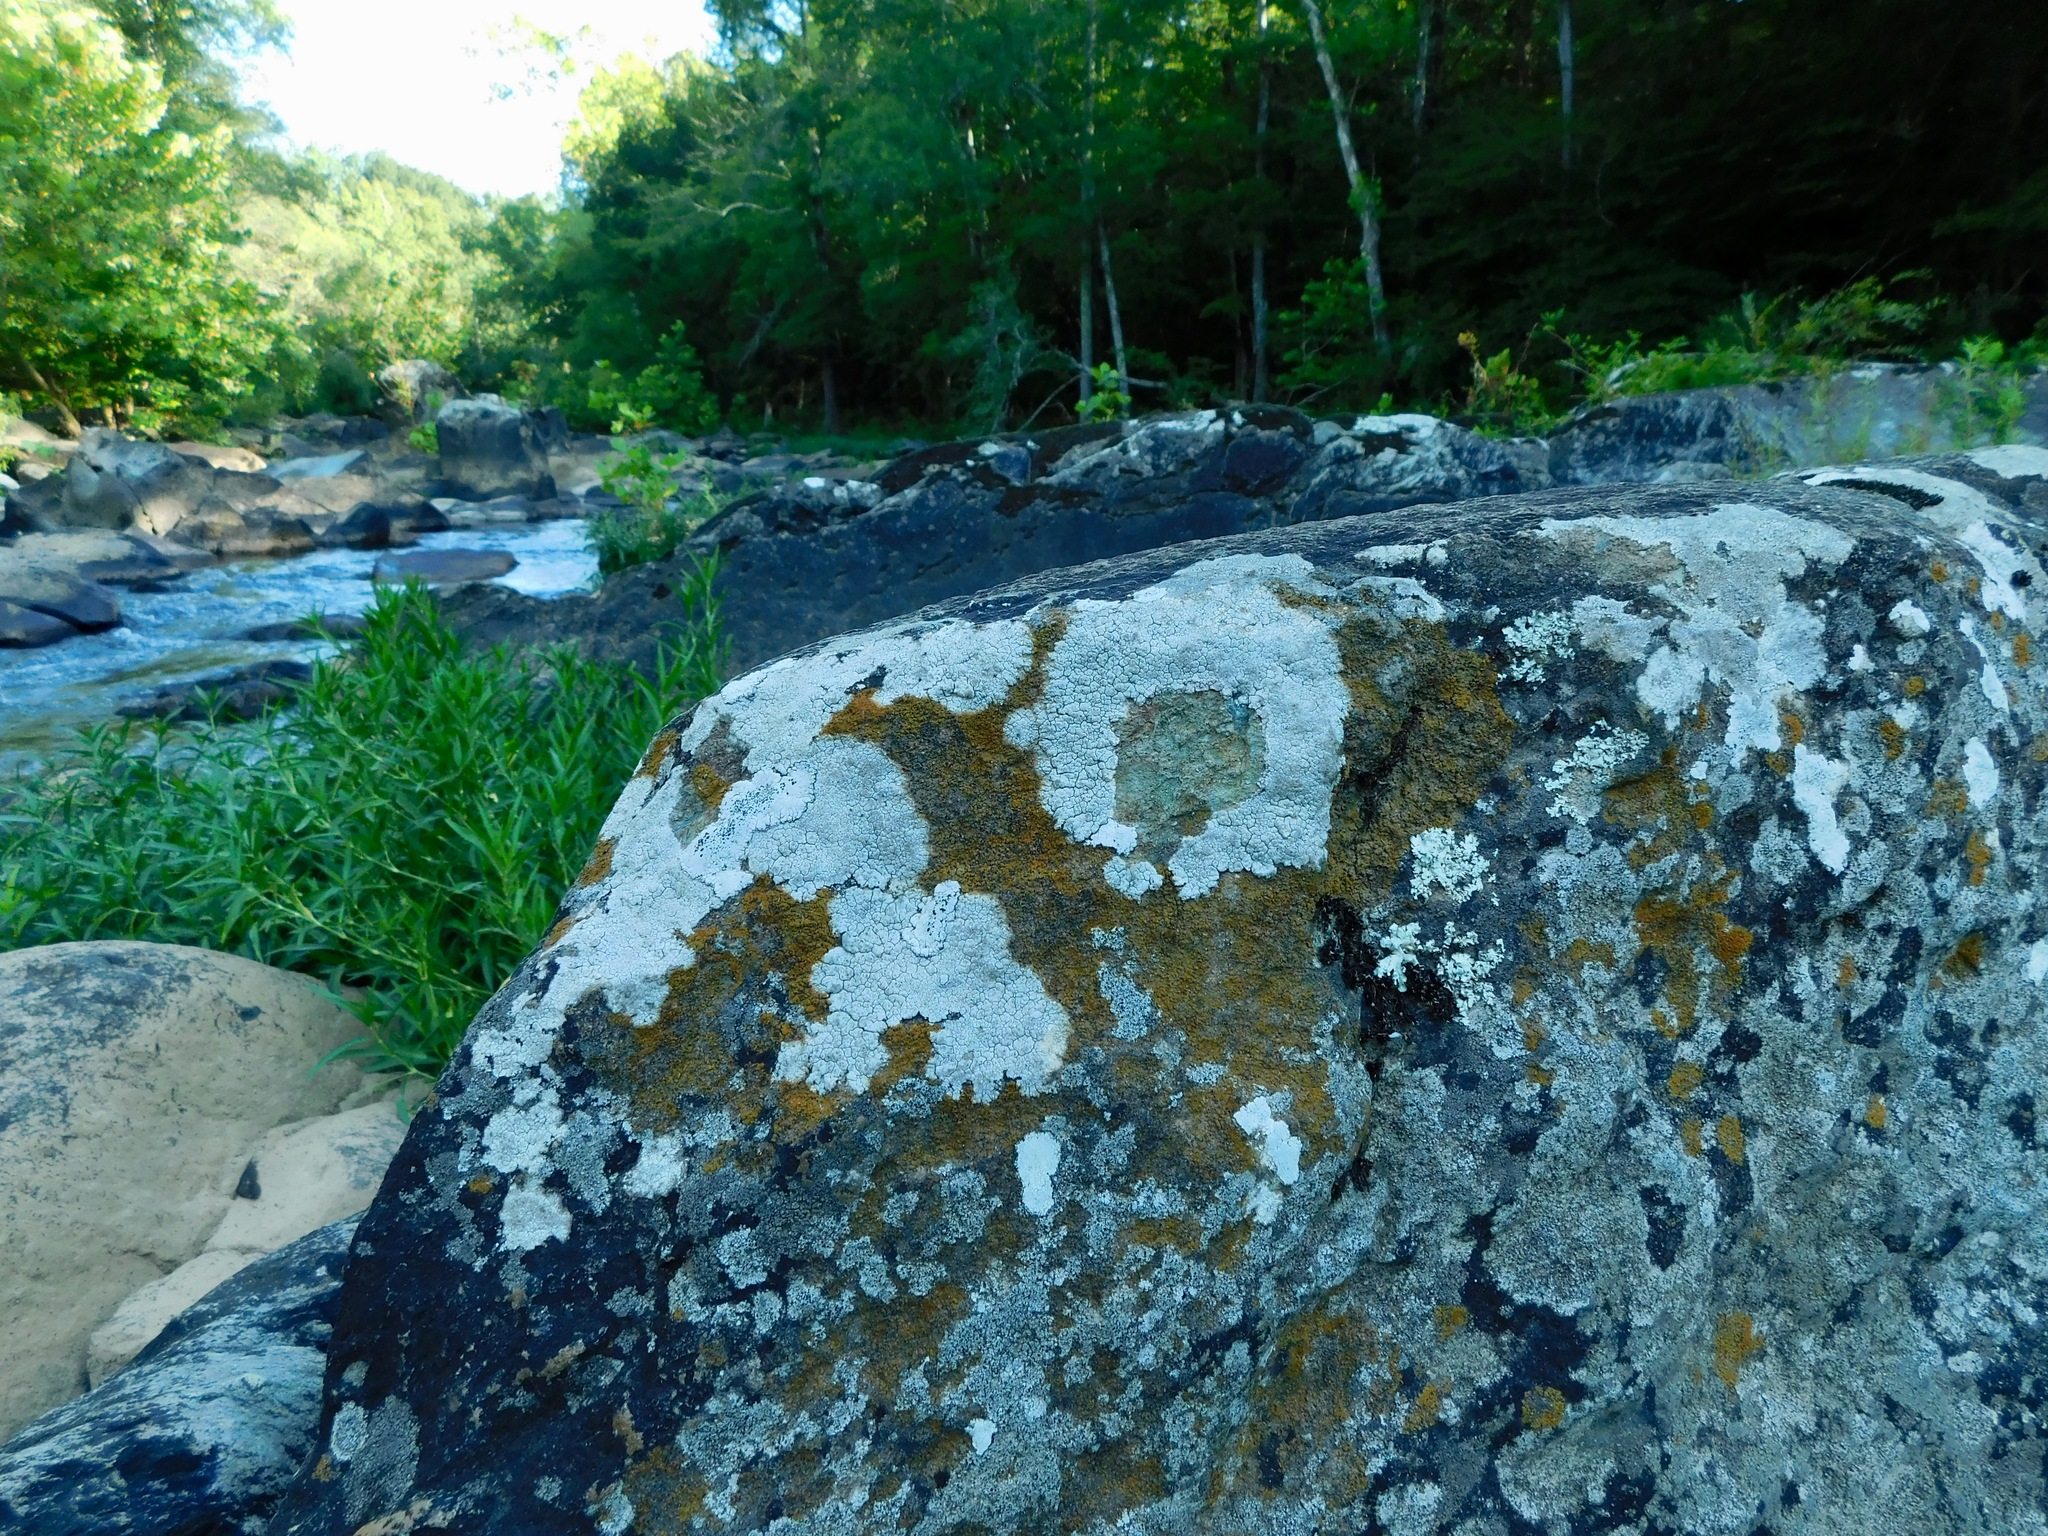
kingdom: Fungi
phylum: Ascomycota
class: Lecanoromycetes
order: Pertusariales
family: Megasporaceae
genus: Aspicilia
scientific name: Aspicilia aquatica
